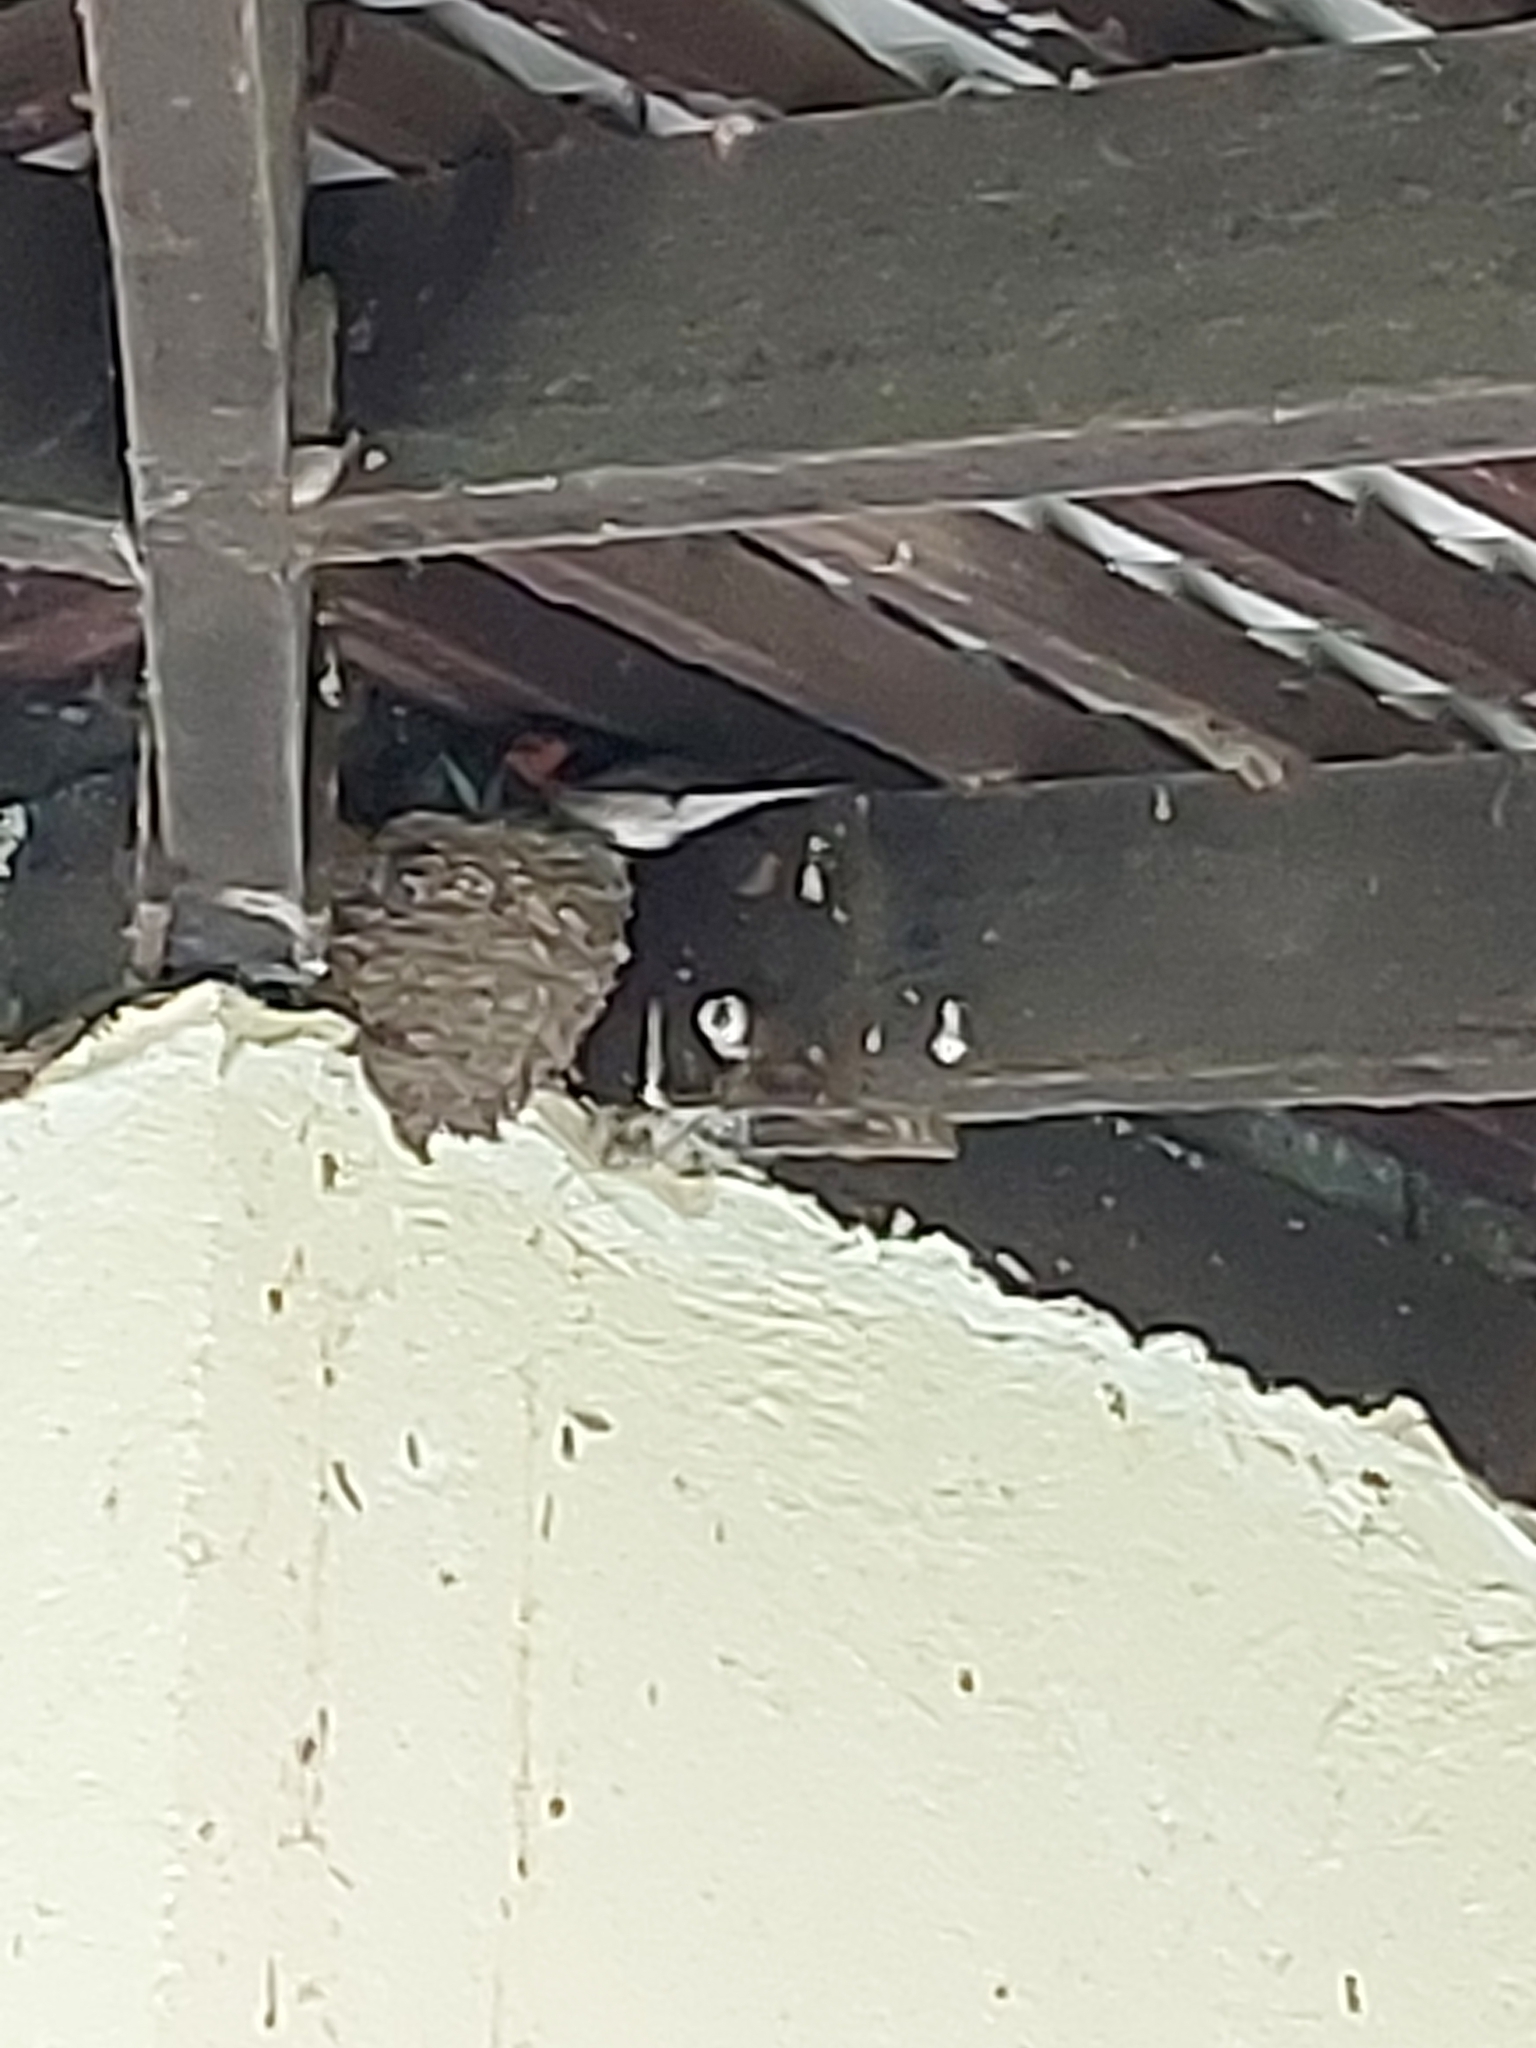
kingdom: Animalia
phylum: Chordata
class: Aves
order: Passeriformes
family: Hirundinidae
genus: Hirundo
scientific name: Hirundo neoxena
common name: Welcome swallow
